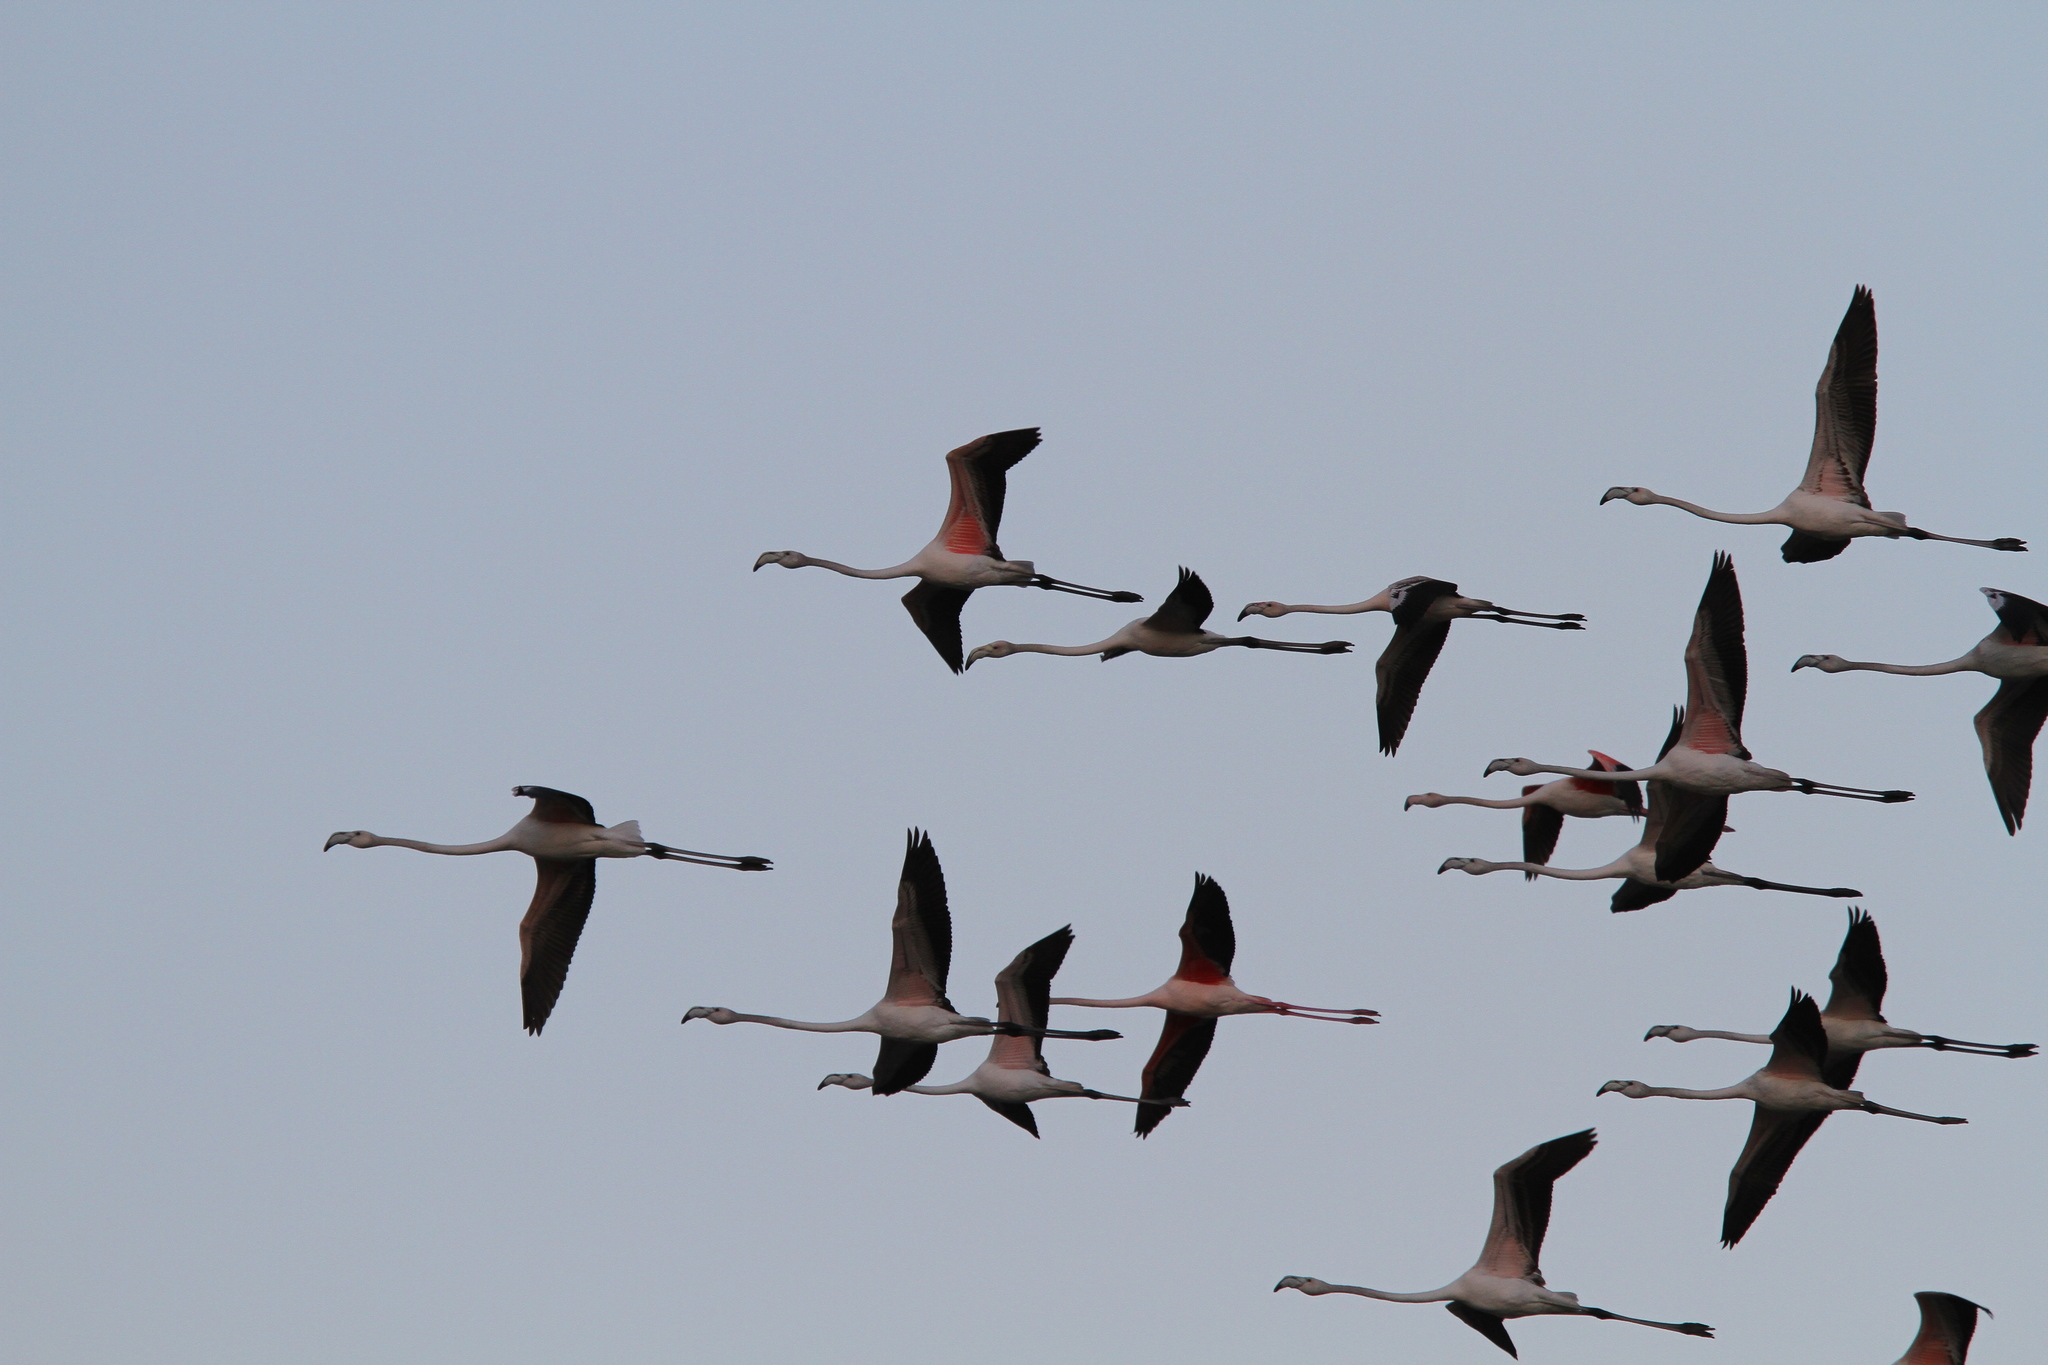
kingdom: Animalia
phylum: Chordata
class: Aves
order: Phoenicopteriformes
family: Phoenicopteridae
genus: Phoenicopterus
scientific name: Phoenicopterus roseus
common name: Greater flamingo
